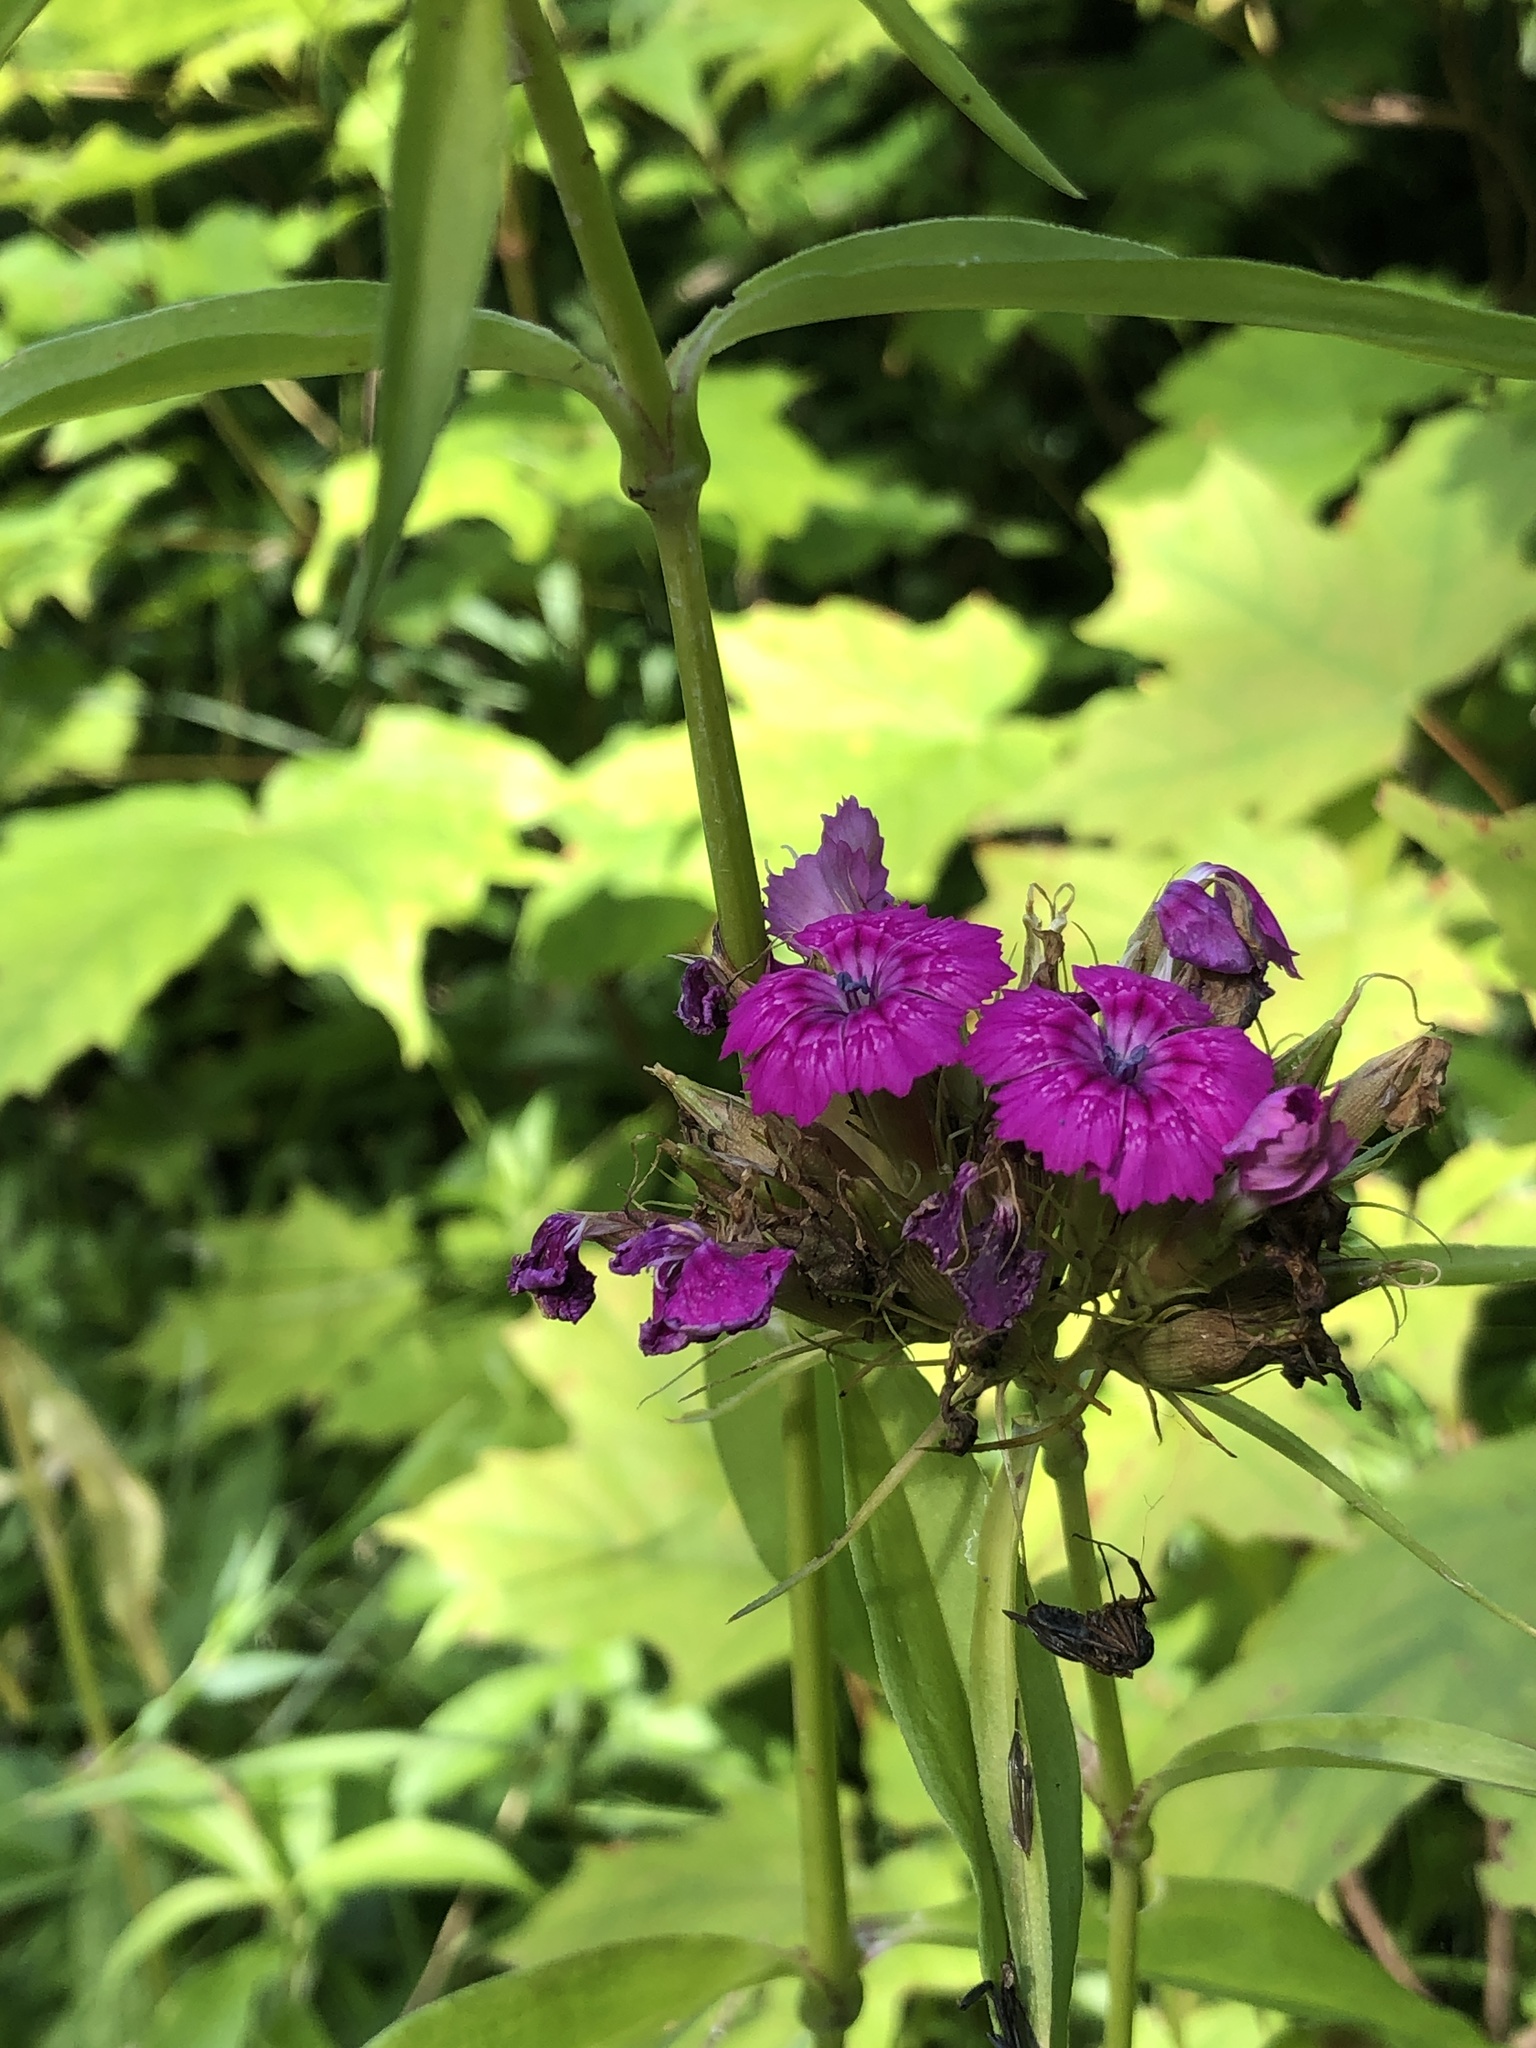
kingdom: Plantae
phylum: Tracheophyta
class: Magnoliopsida
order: Caryophyllales
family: Caryophyllaceae
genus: Dianthus
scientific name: Dianthus barbatus
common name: Sweet-william
